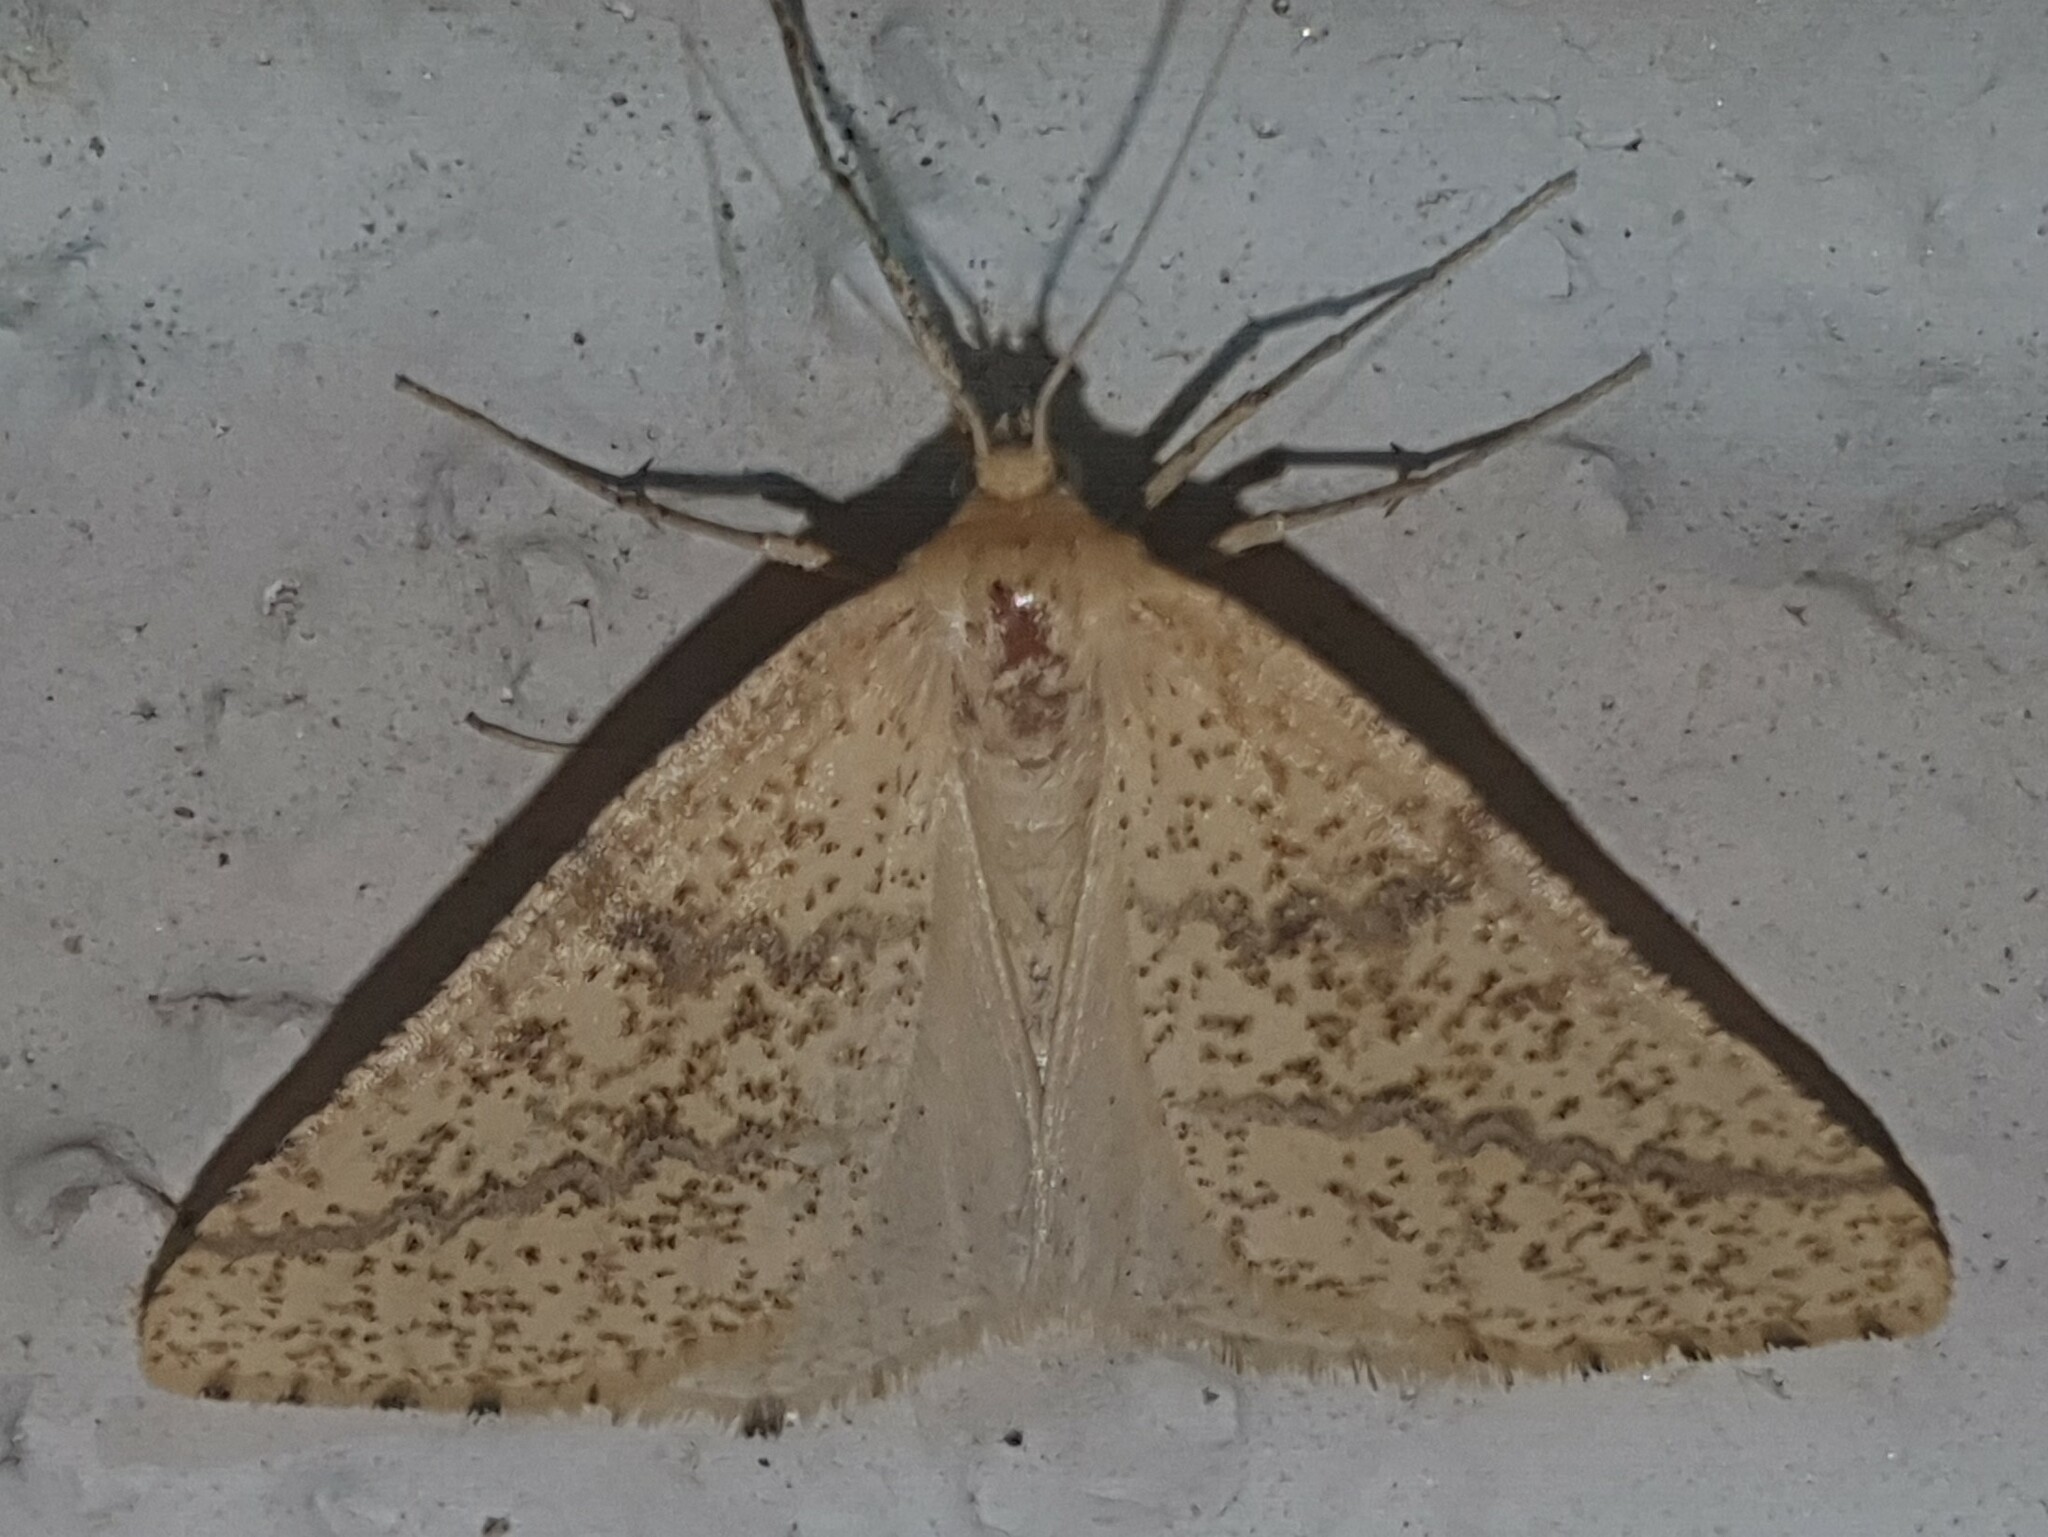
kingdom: Animalia
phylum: Arthropoda
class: Insecta
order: Lepidoptera
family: Geometridae
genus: Aspitates
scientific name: Aspitates ochrearia
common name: Yellow belle
